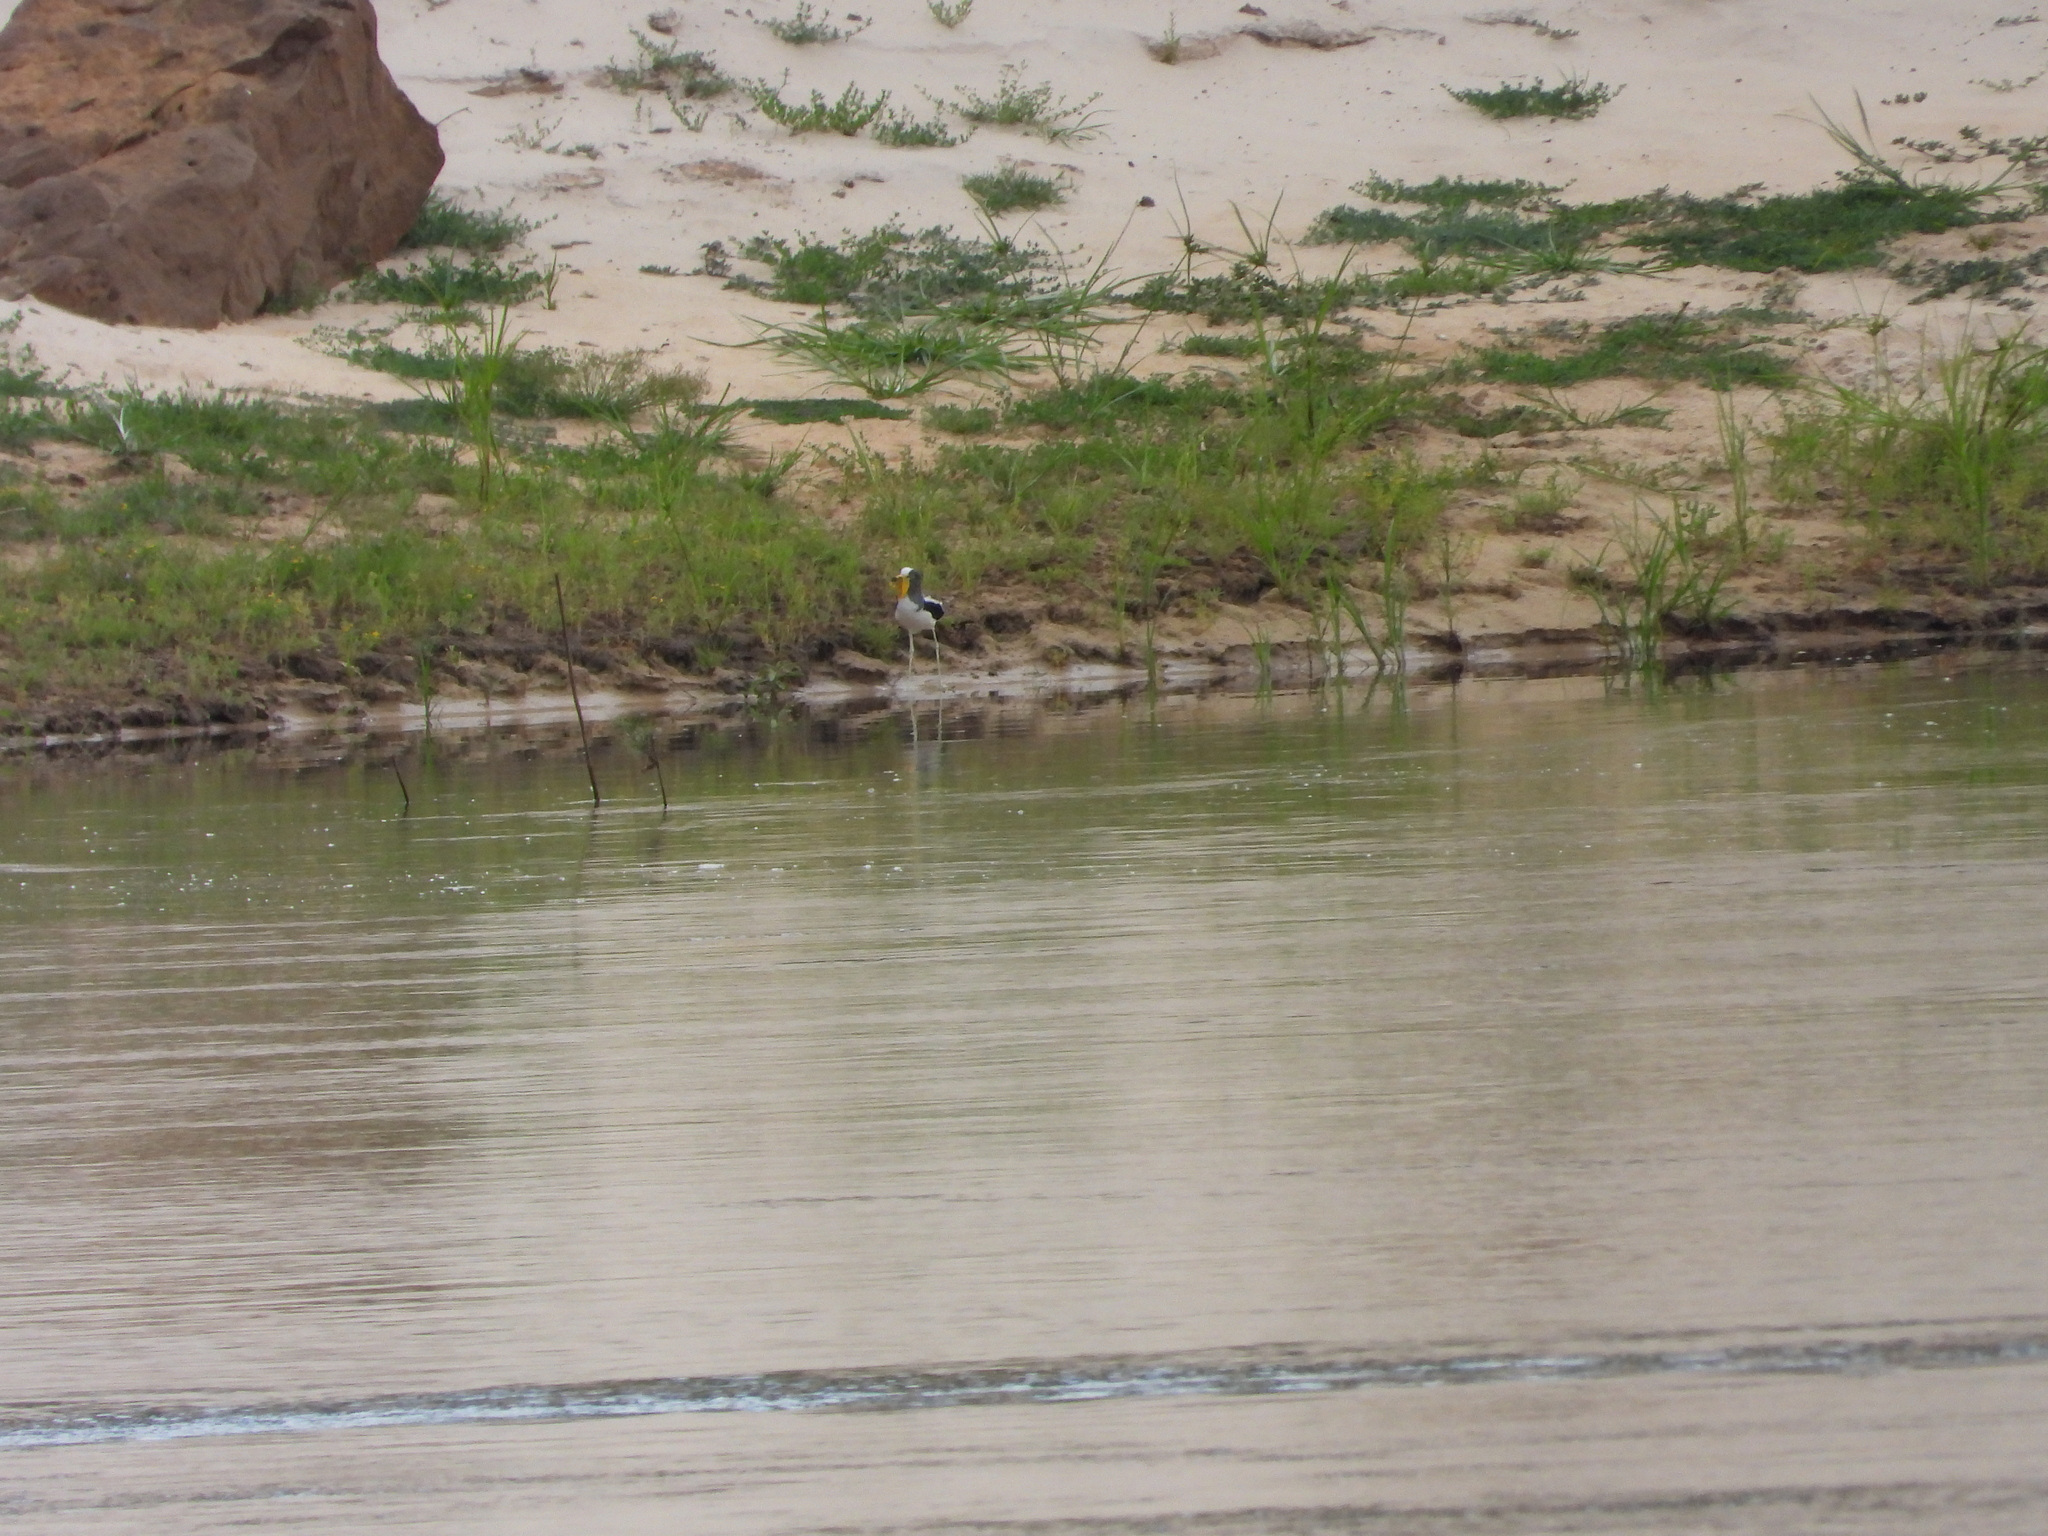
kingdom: Animalia
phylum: Chordata
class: Aves
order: Charadriiformes
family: Charadriidae
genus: Vanellus
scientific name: Vanellus albiceps
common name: White-crowned lapwing
